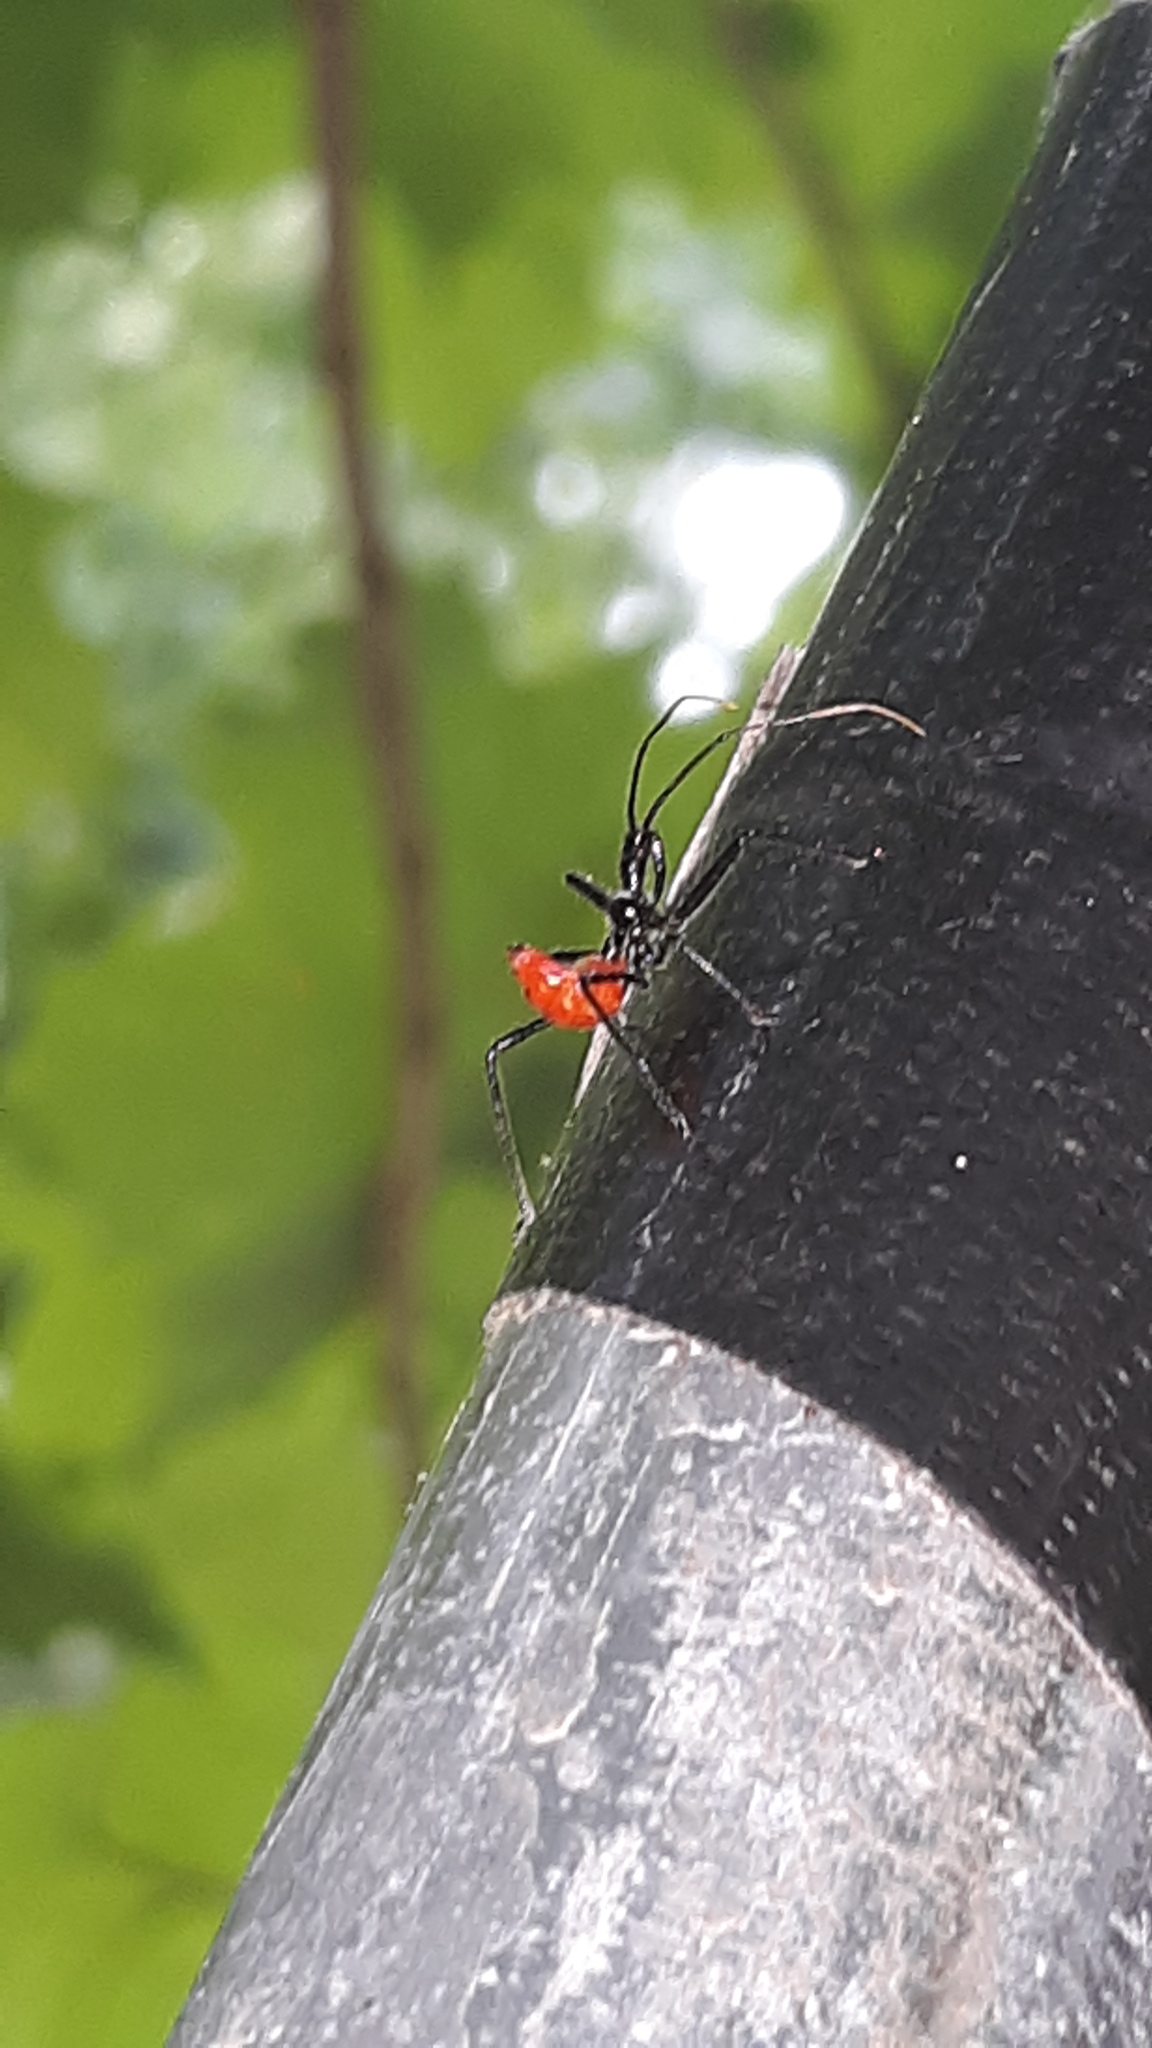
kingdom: Animalia
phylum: Arthropoda
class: Insecta
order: Hemiptera
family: Reduviidae
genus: Arilus
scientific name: Arilus cristatus
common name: North american wheel bug
